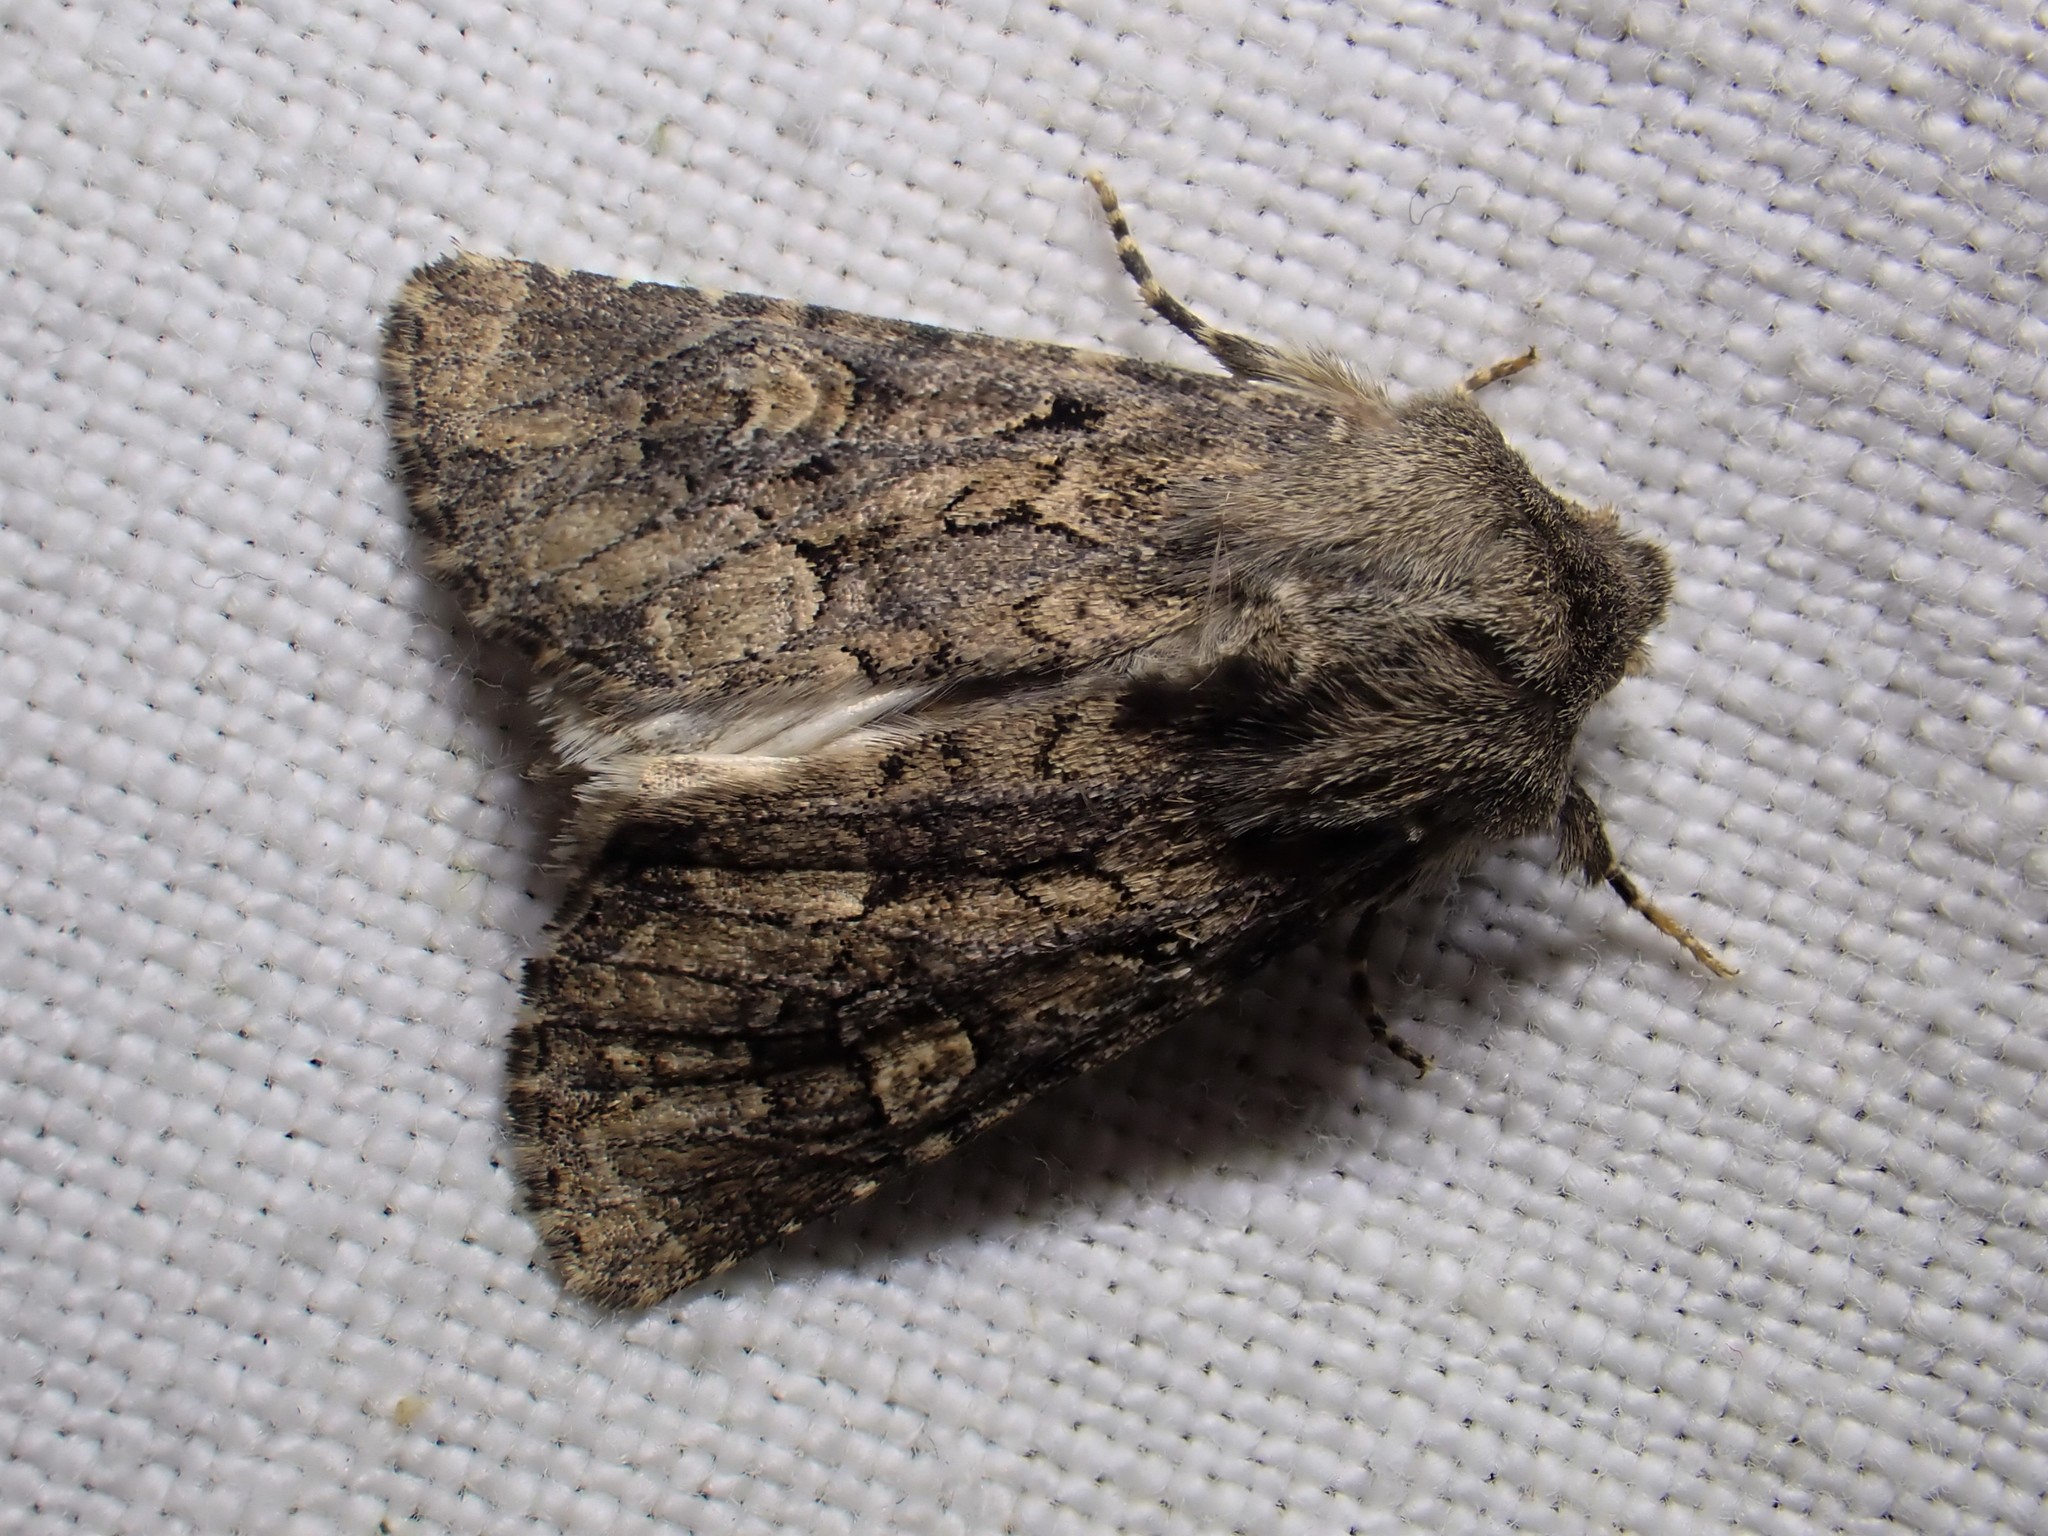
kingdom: Animalia
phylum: Arthropoda
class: Insecta
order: Lepidoptera
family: Noctuidae
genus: Luperina
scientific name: Luperina testacea
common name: Flounced rustic
